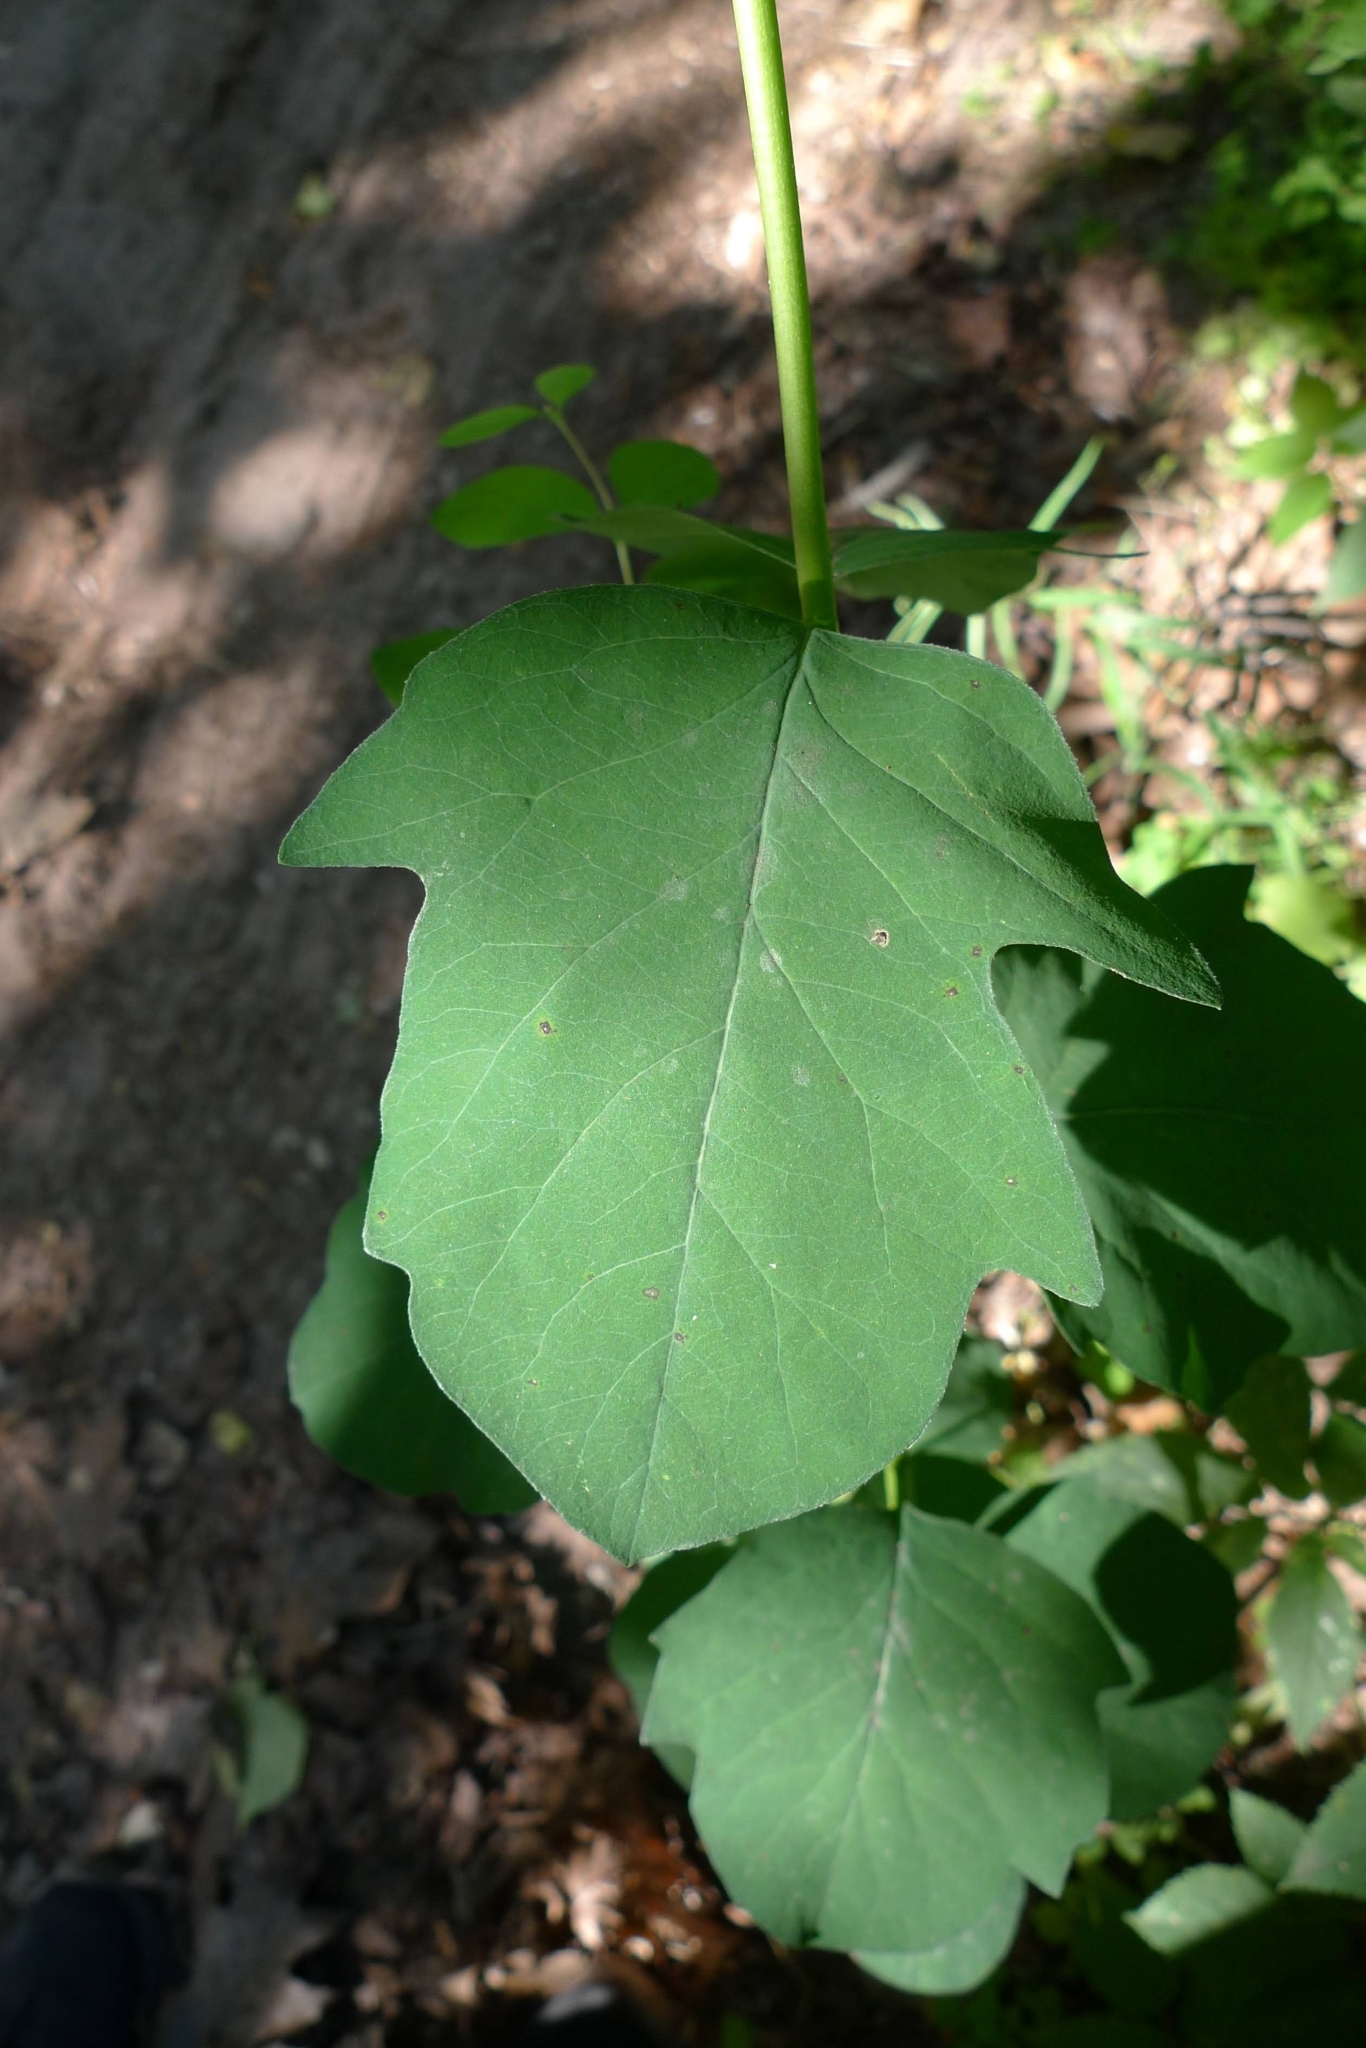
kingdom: Plantae
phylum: Tracheophyta
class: Magnoliopsida
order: Dipsacales
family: Caprifoliaceae
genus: Symphoricarpos
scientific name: Symphoricarpos albus
